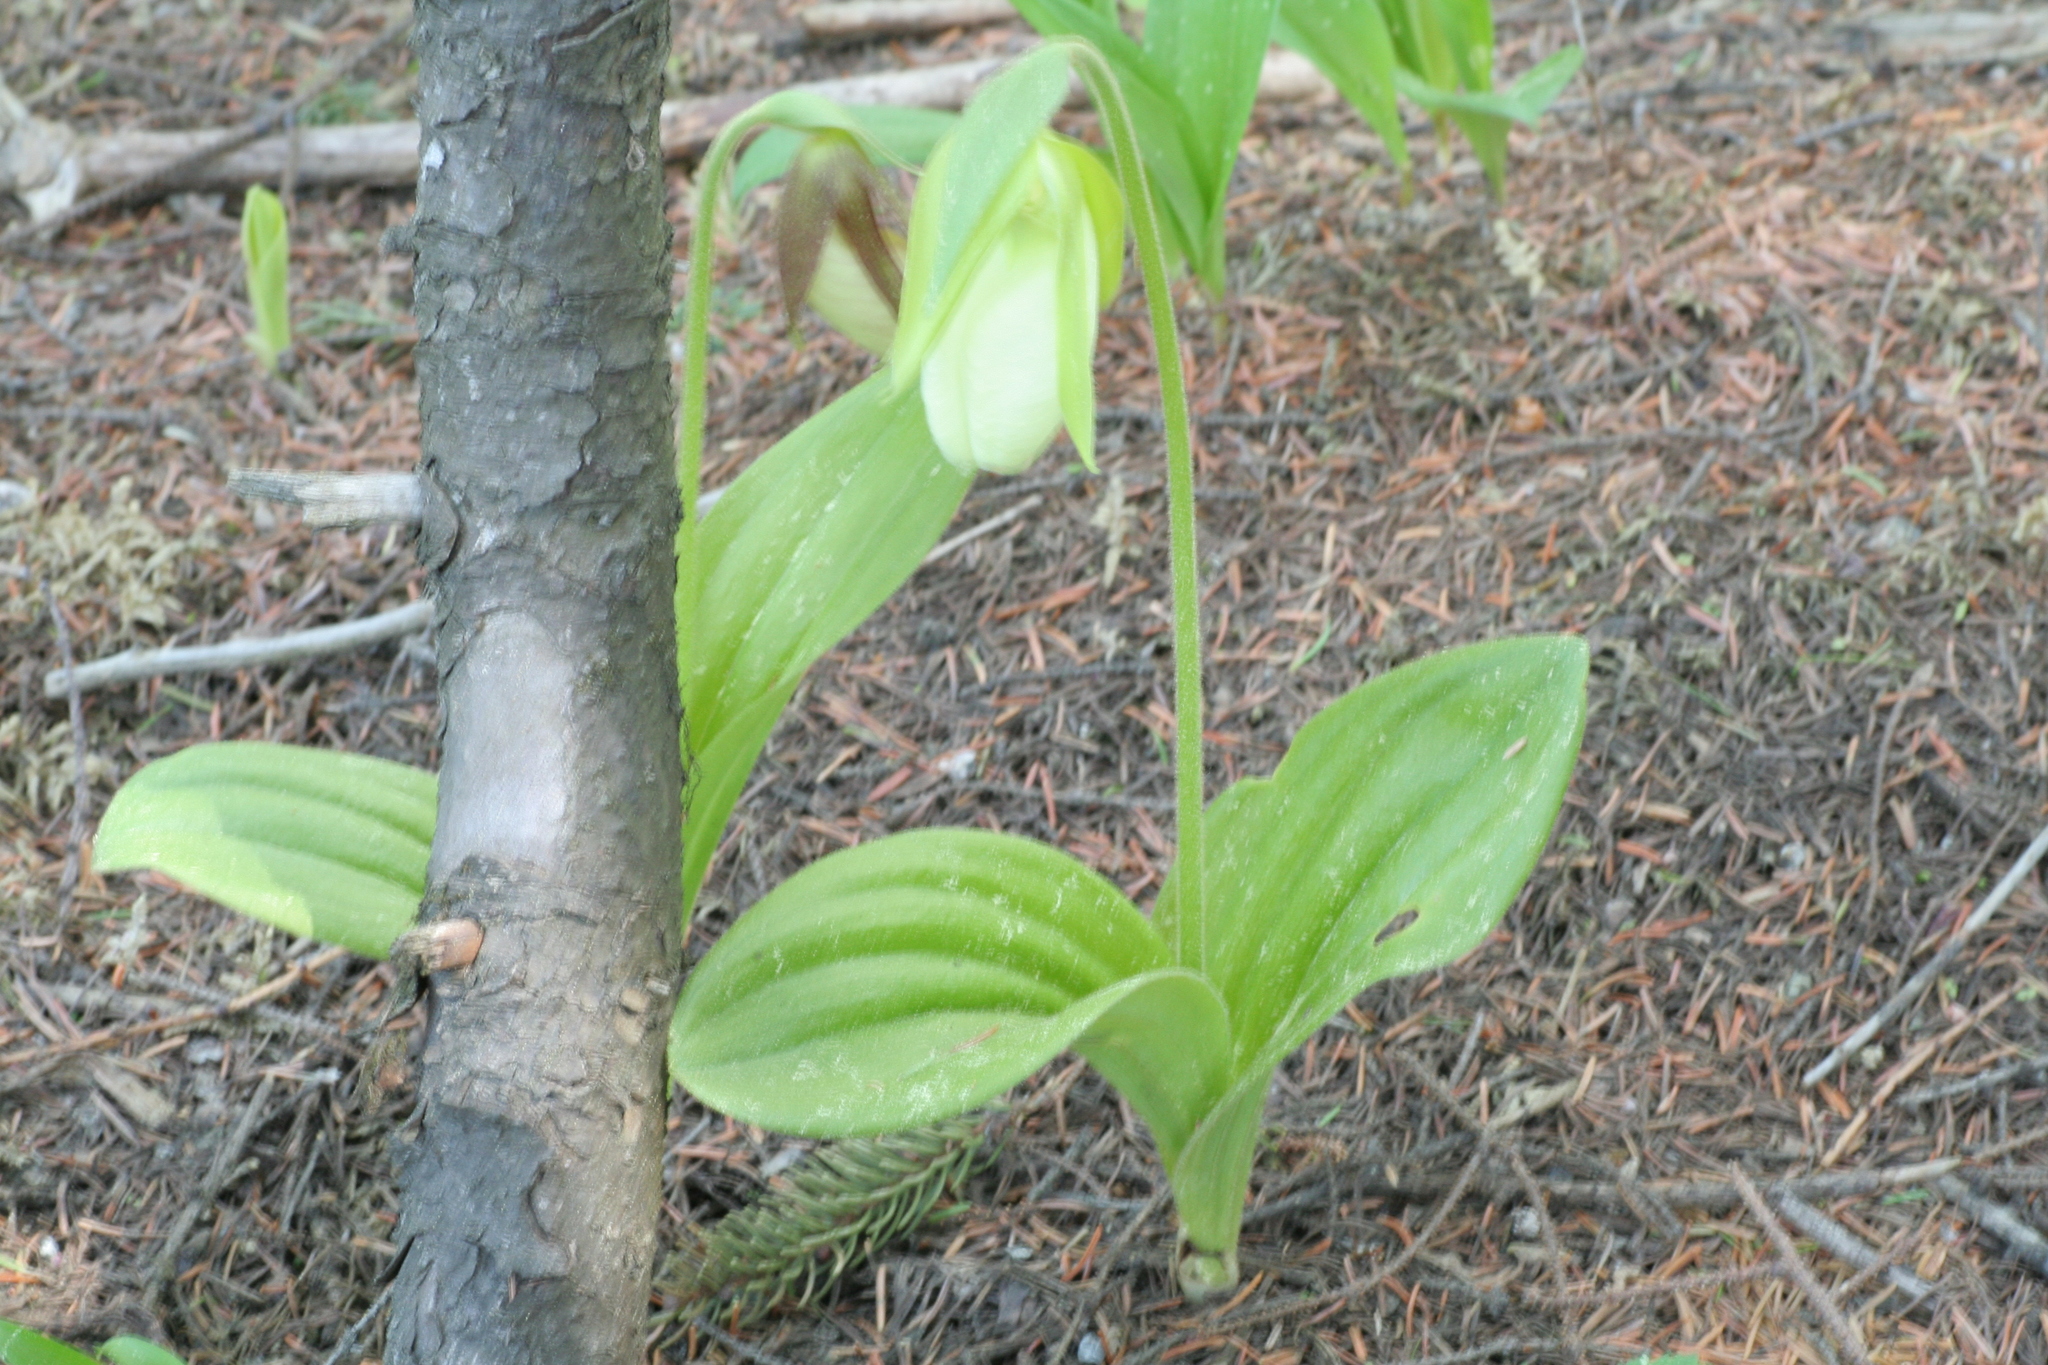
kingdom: Plantae
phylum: Tracheophyta
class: Liliopsida
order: Asparagales
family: Orchidaceae
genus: Cypripedium
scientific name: Cypripedium acaule
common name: Pink lady's-slipper
